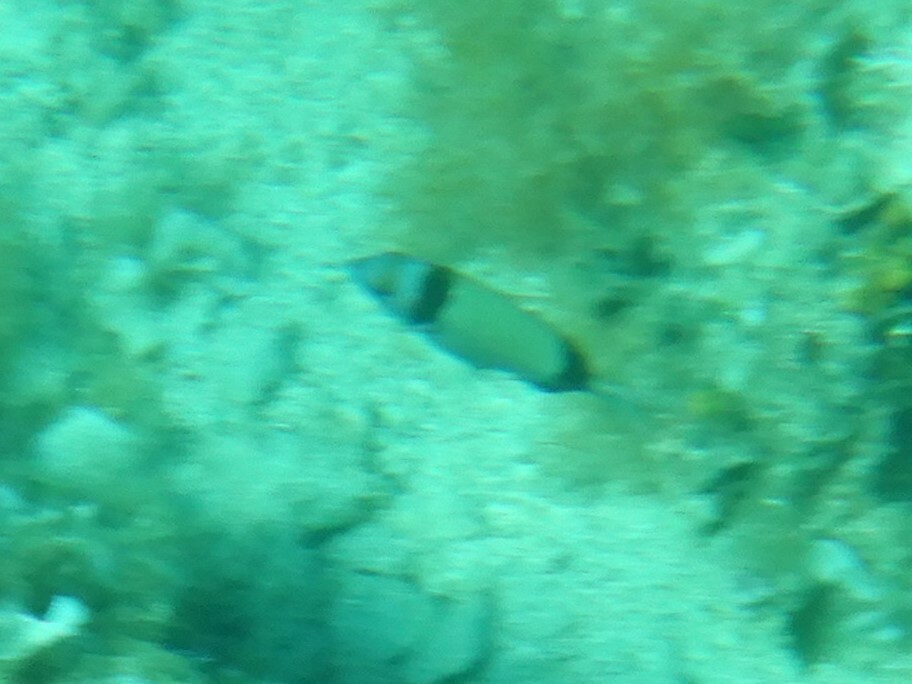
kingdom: Animalia
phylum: Chordata
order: Perciformes
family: Sparidae
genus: Diplodus
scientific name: Diplodus vulgaris
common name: Common two-banded seabream
